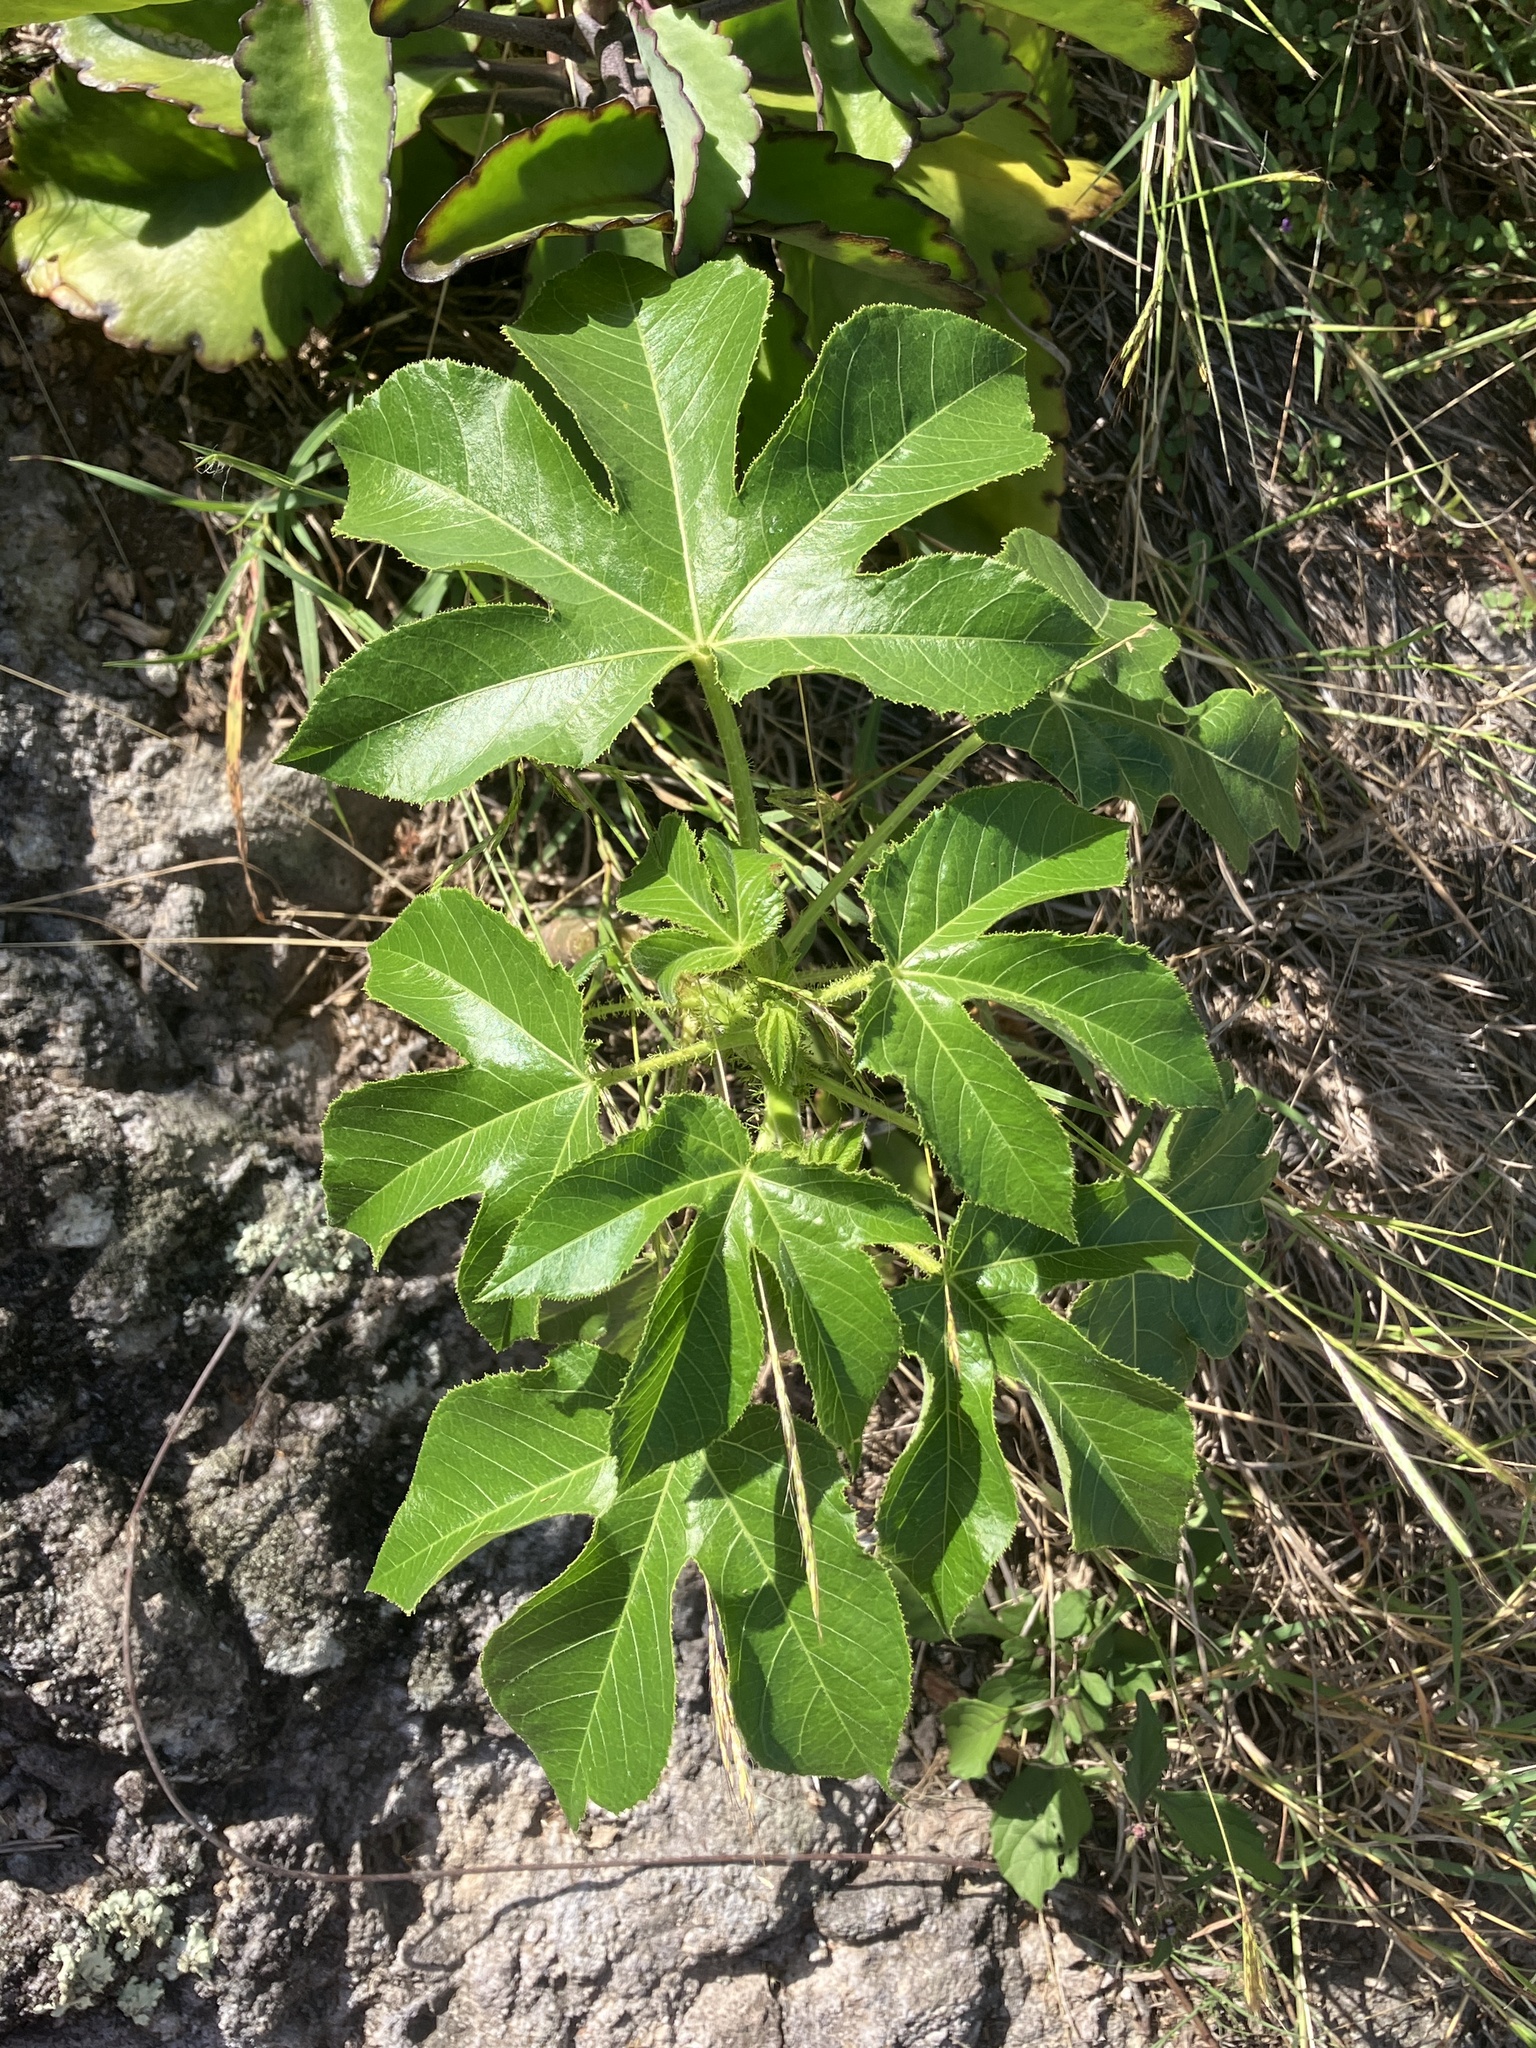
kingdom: Plantae
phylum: Tracheophyta
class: Magnoliopsida
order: Malpighiales
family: Euphorbiaceae
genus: Jatropha
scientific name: Jatropha gossypiifolia
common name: Bellyache bush
